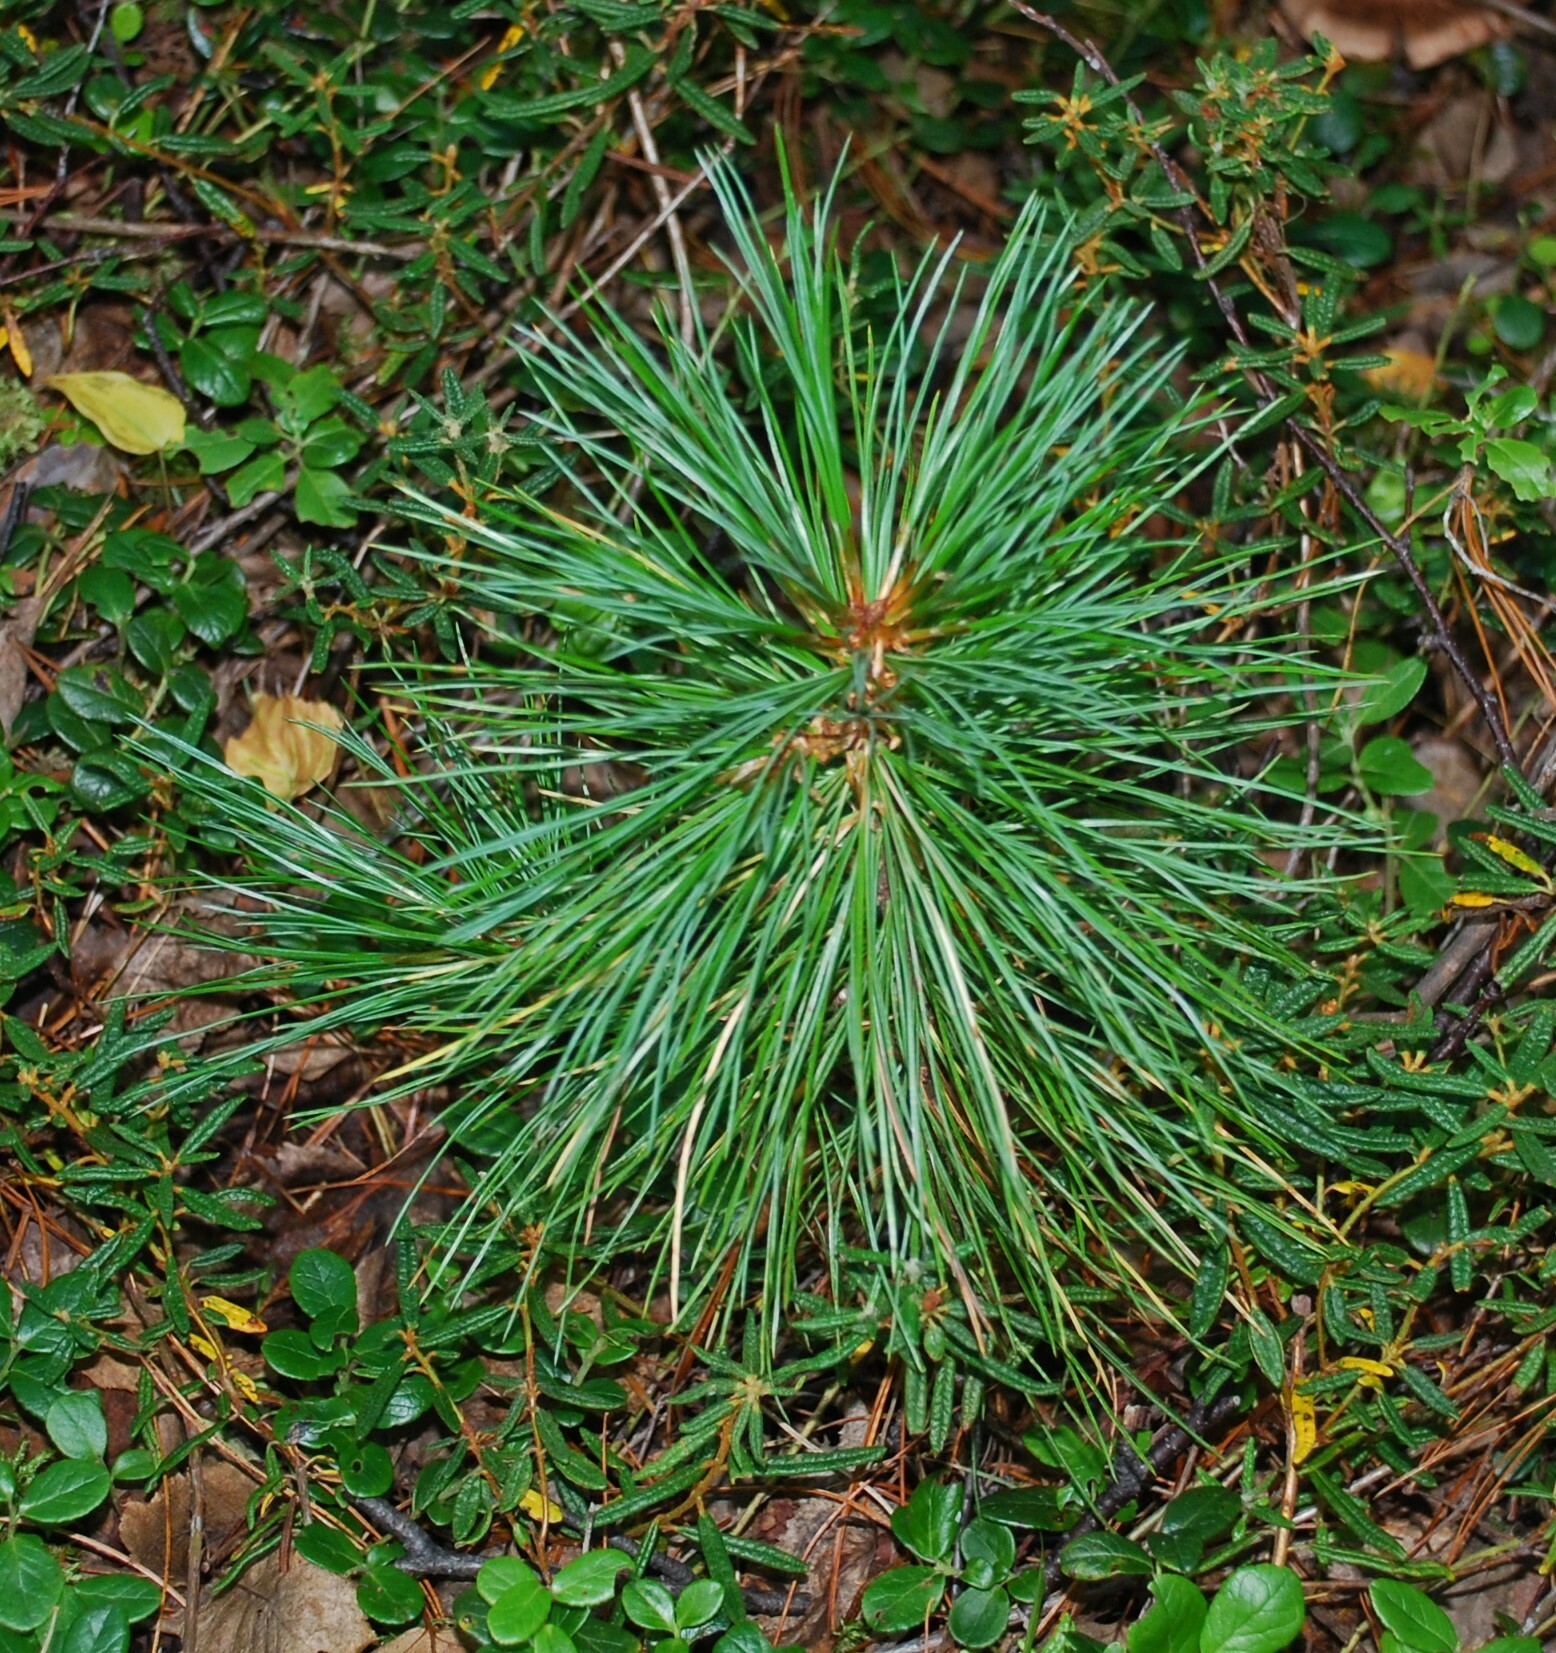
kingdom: Plantae
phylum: Tracheophyta
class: Pinopsida
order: Pinales
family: Pinaceae
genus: Pinus
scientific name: Pinus sibirica
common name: Siberian pine
